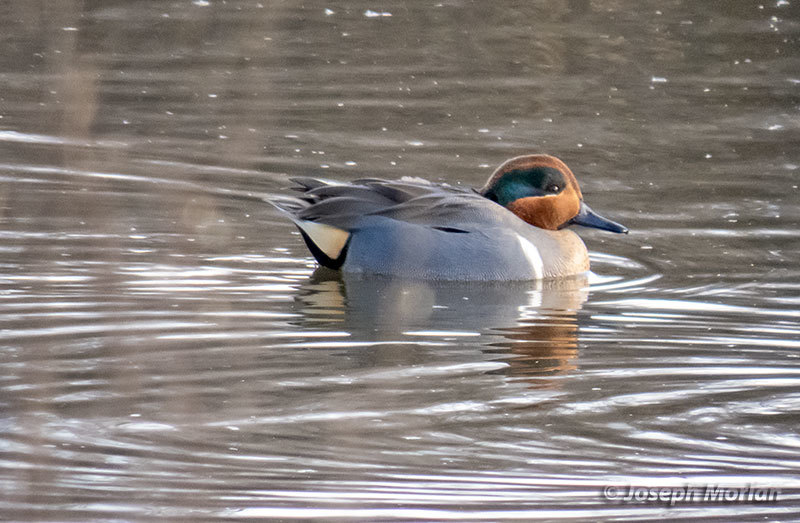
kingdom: Animalia
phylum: Chordata
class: Aves
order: Anseriformes
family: Anatidae
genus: Anas
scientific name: Anas crecca
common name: Eurasian teal
